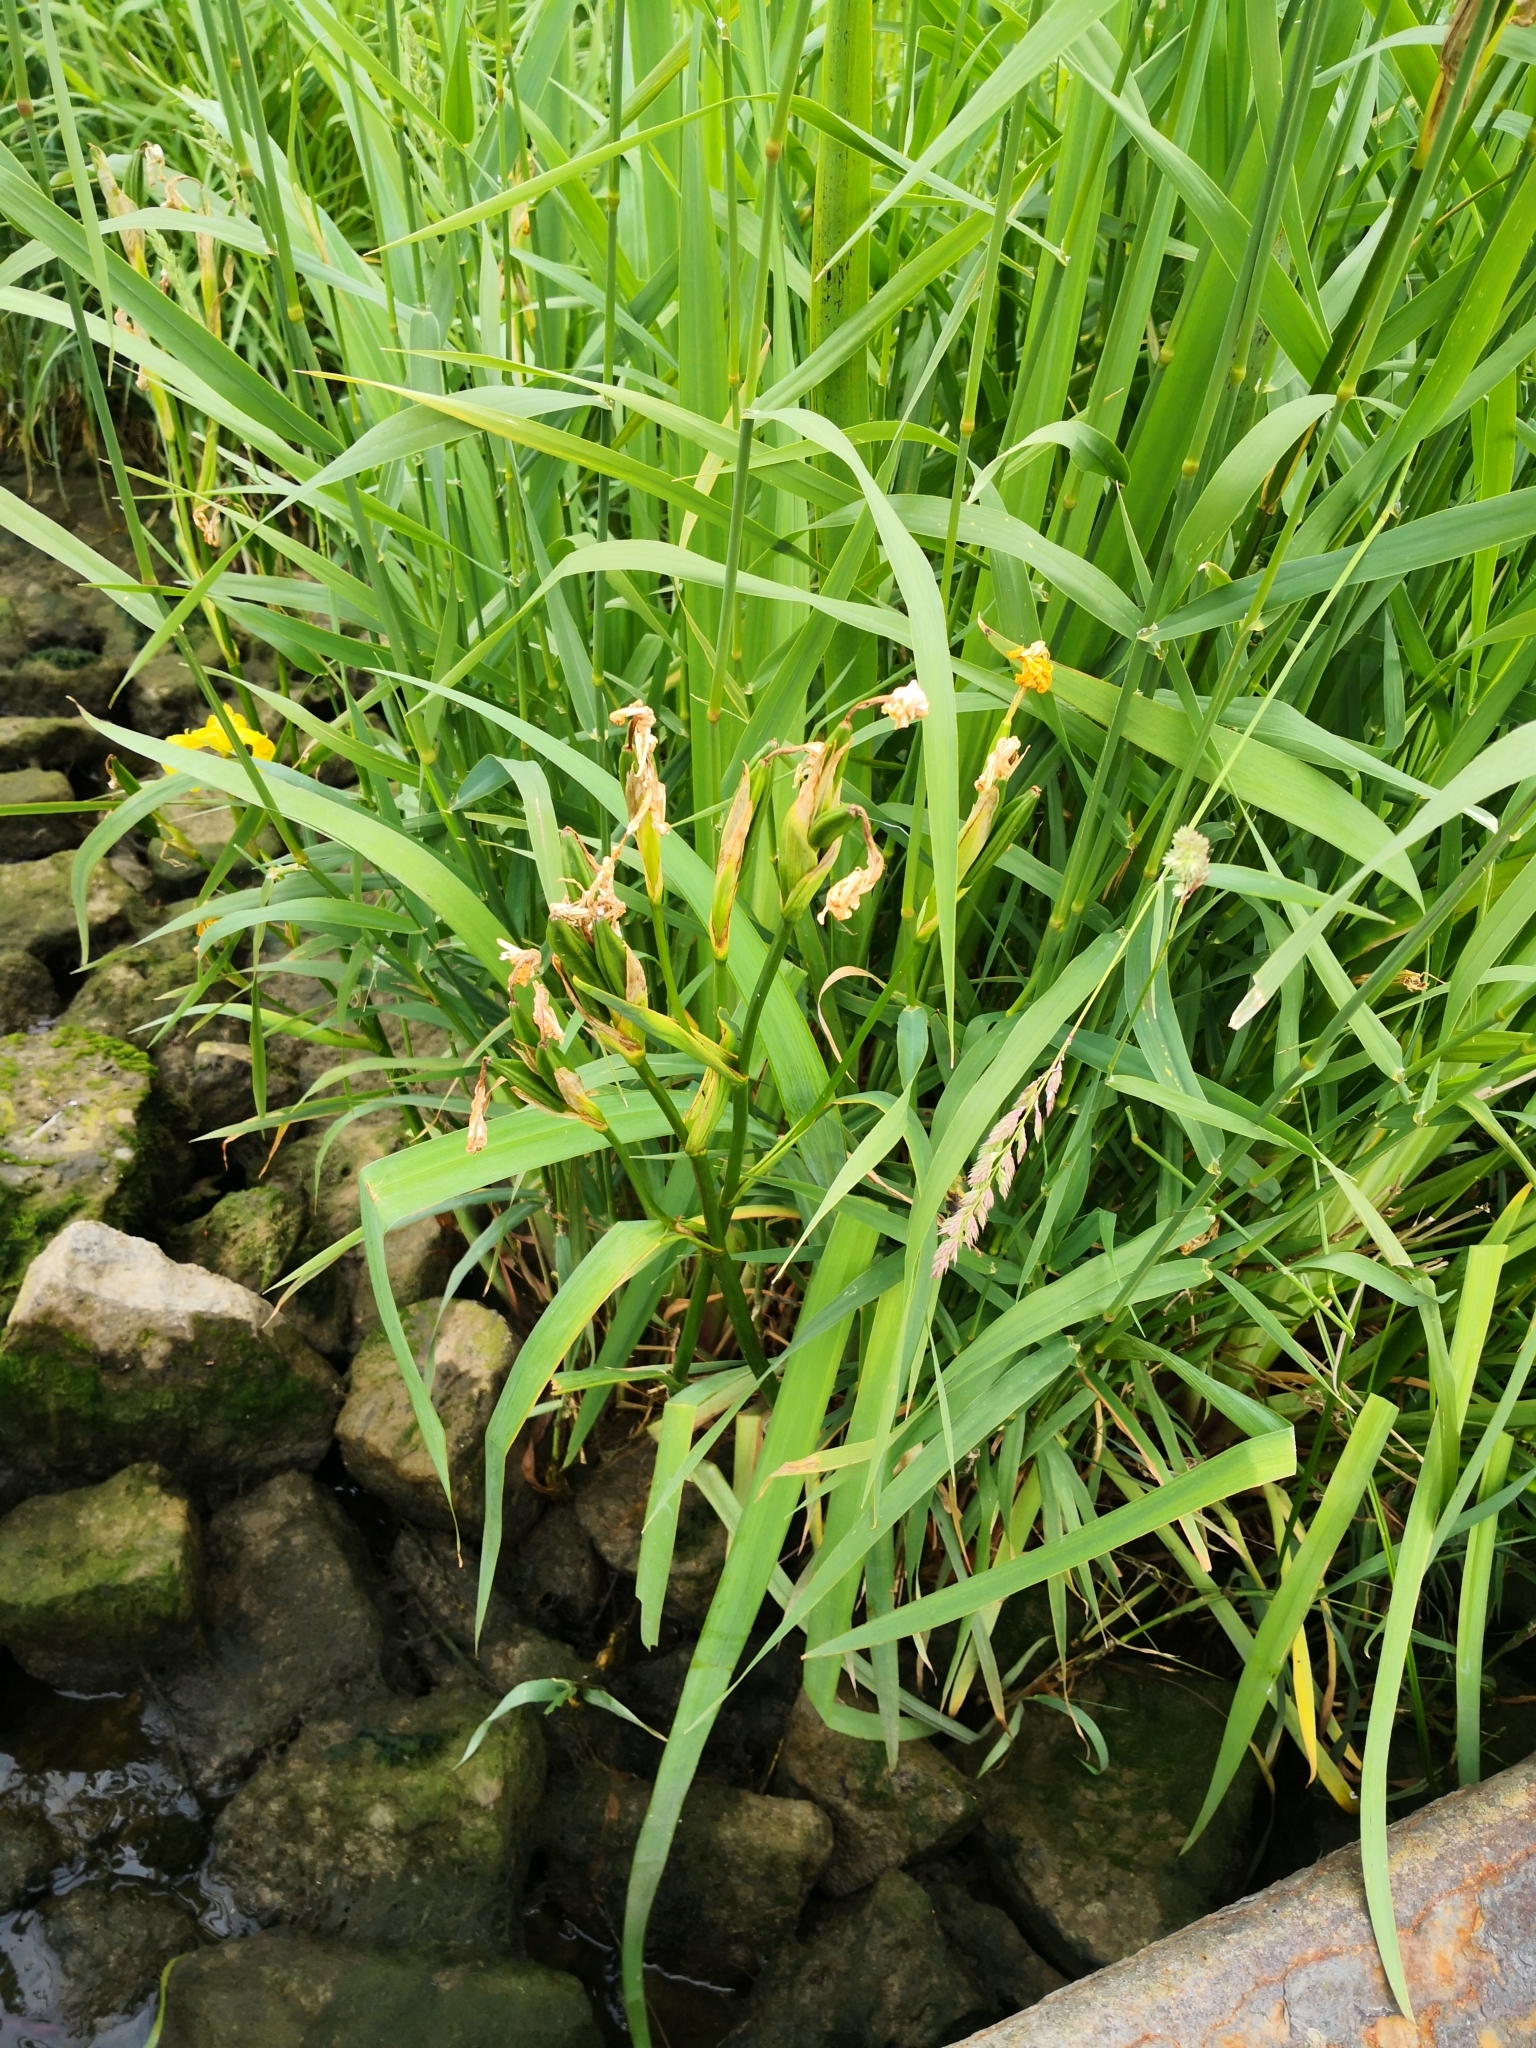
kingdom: Plantae
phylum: Tracheophyta
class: Liliopsida
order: Asparagales
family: Iridaceae
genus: Iris
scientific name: Iris pseudacorus
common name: Yellow flag
